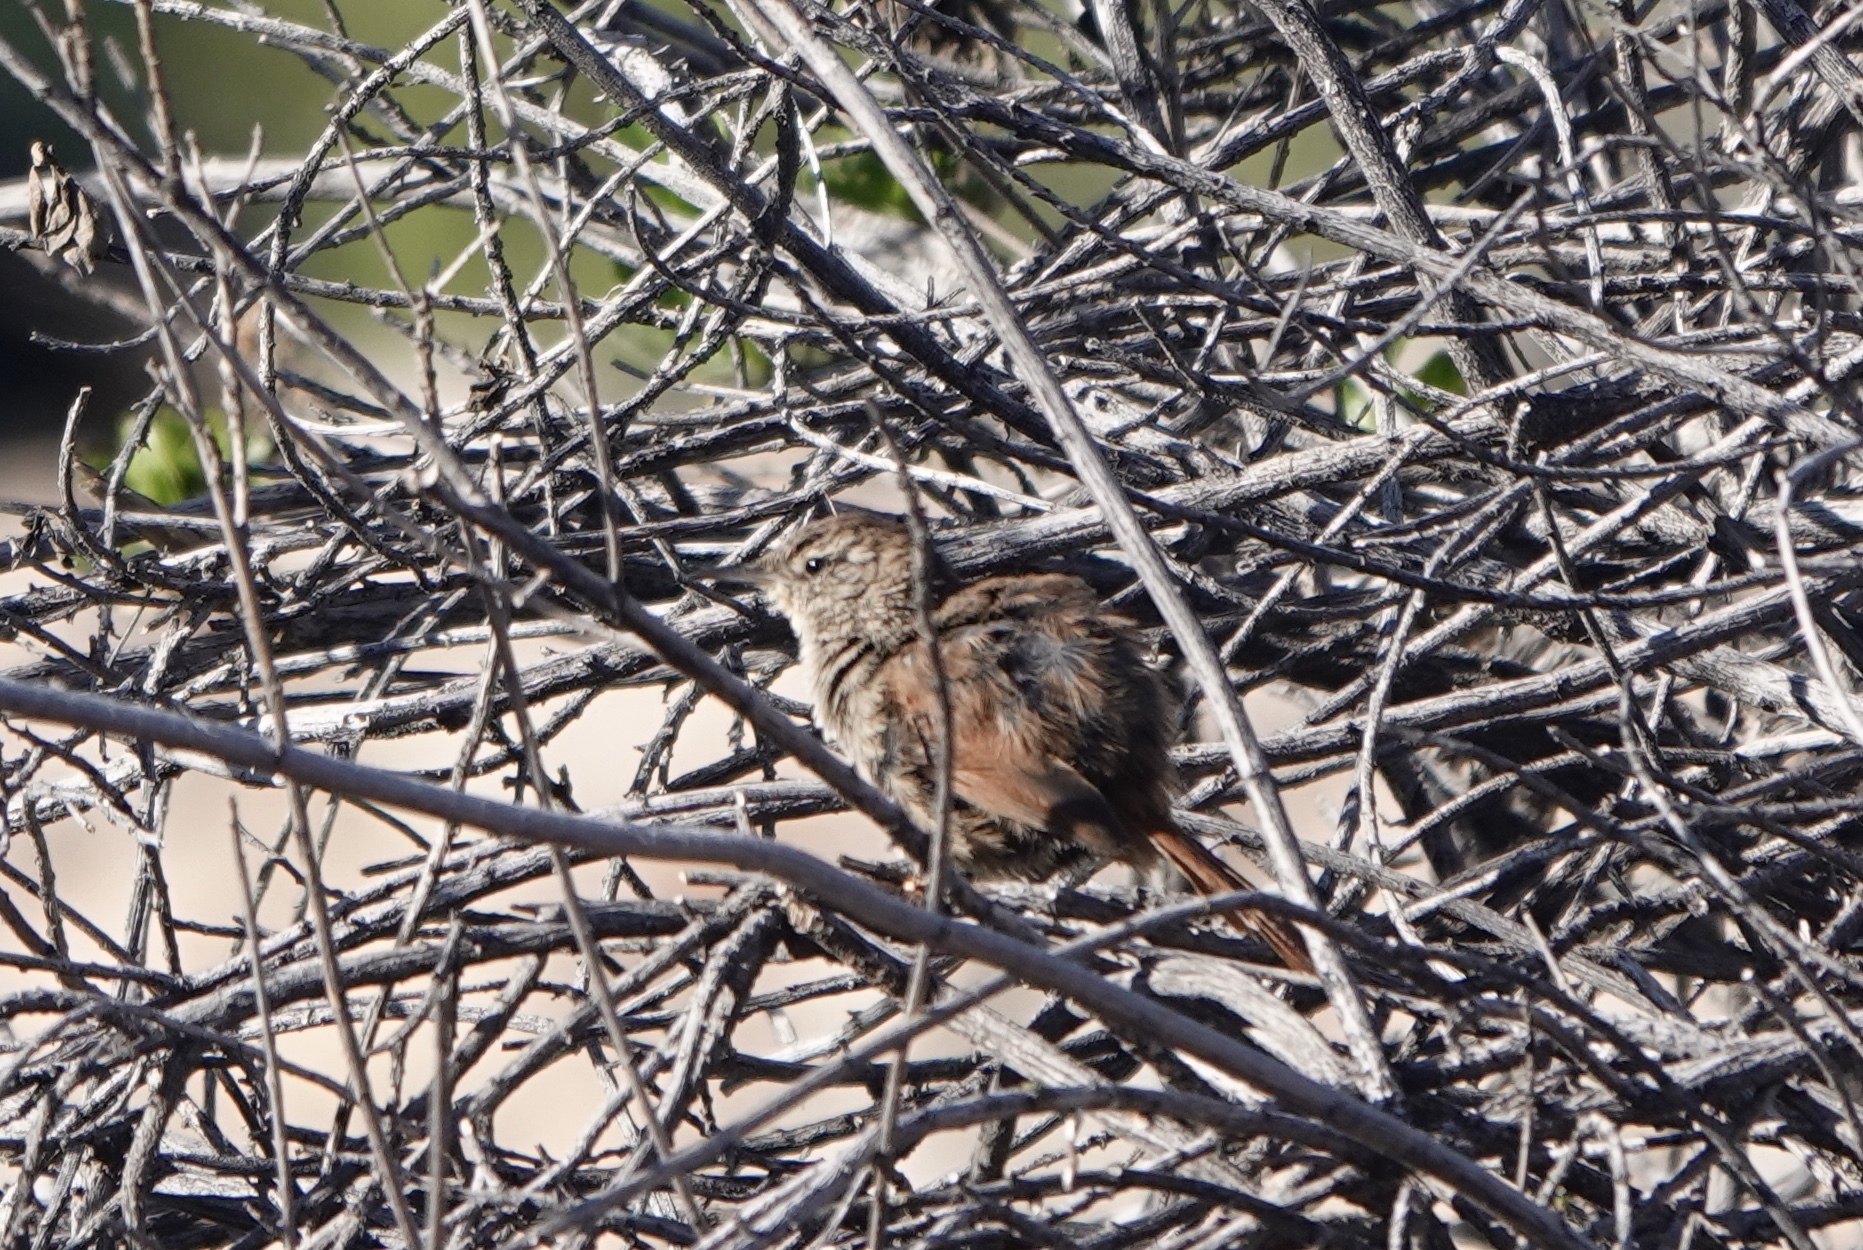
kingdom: Animalia
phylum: Chordata
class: Aves
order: Passeriformes
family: Furnariidae
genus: Asthenes
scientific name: Asthenes pudibunda
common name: Canyon canastero
